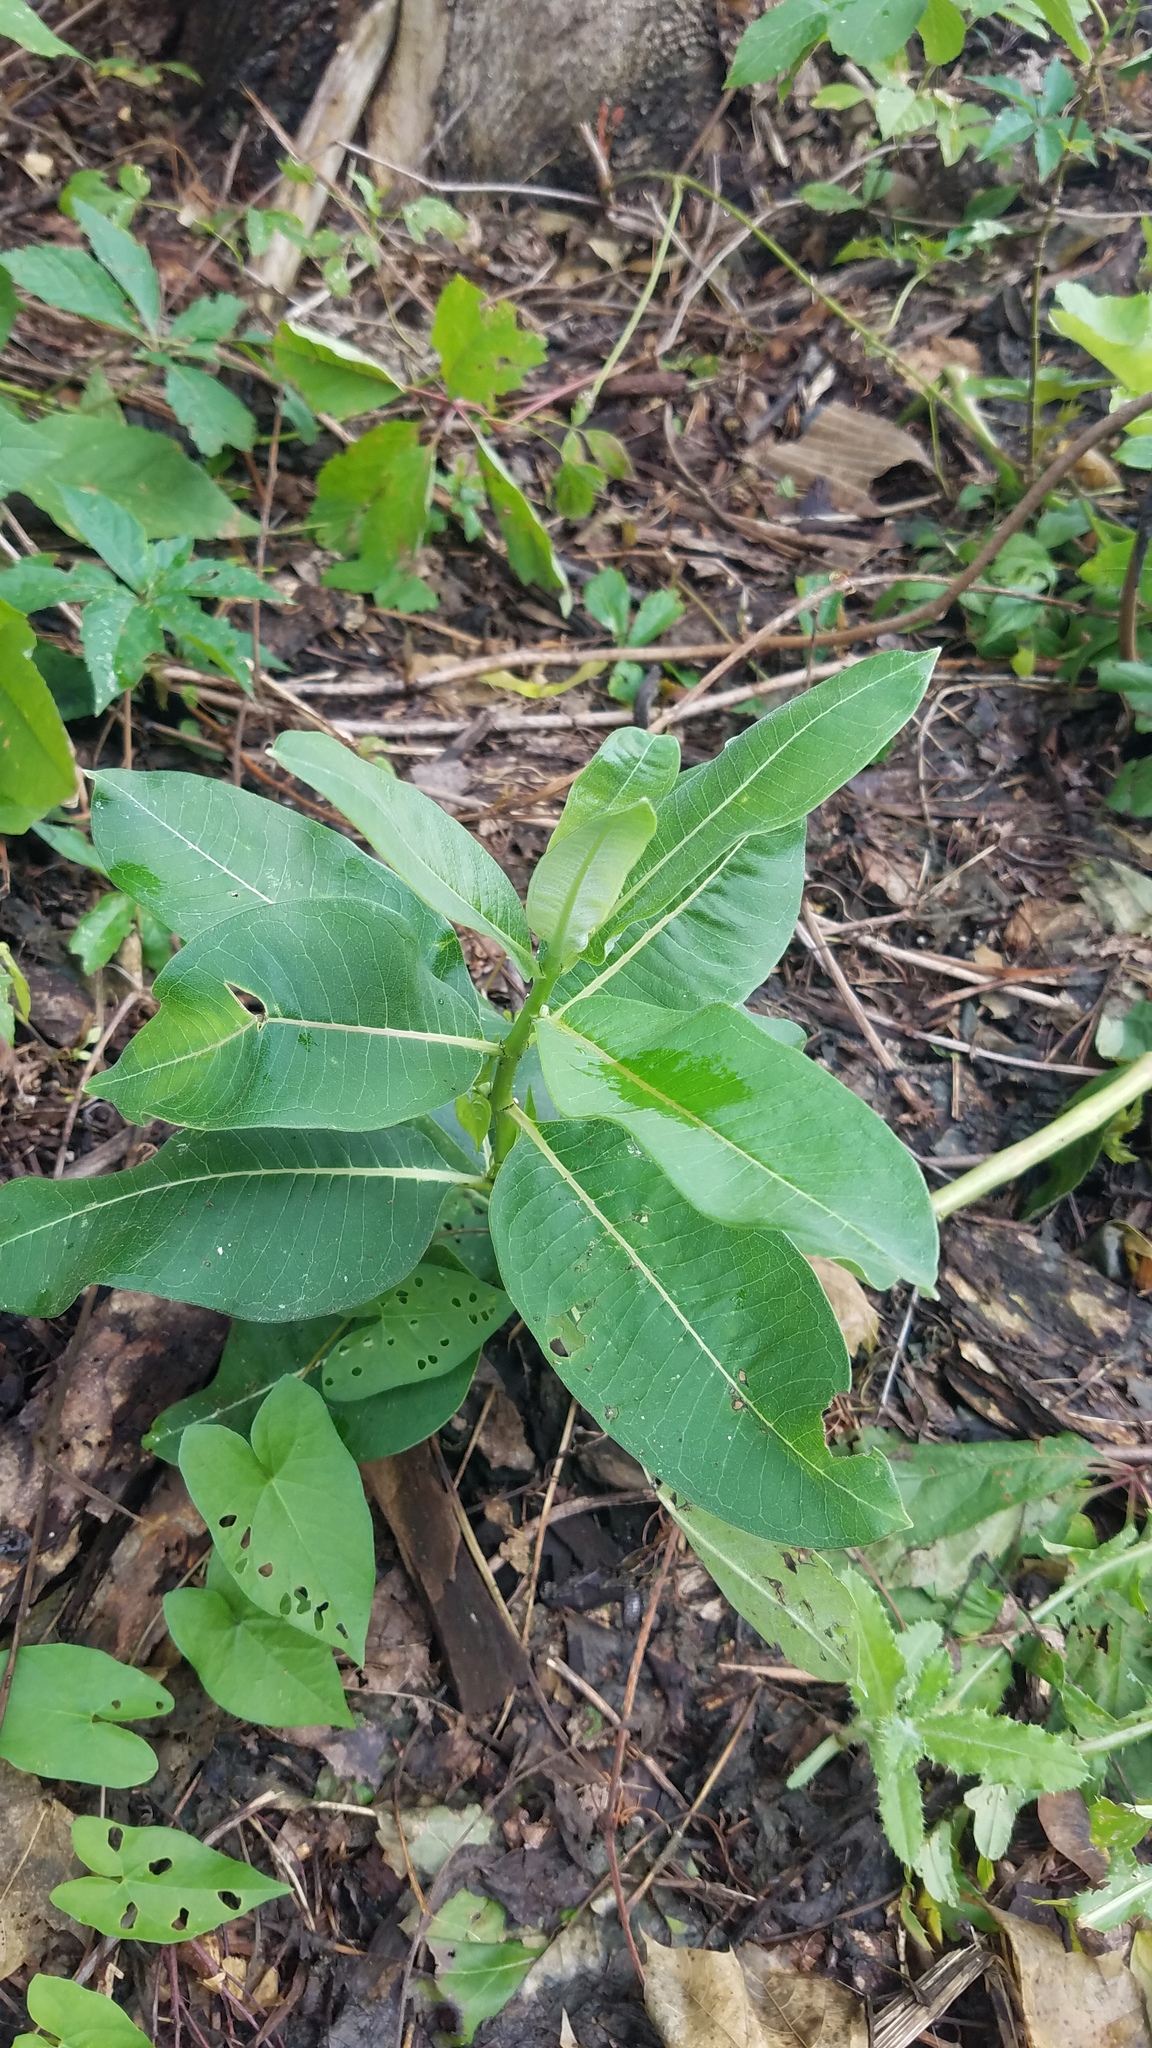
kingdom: Plantae
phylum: Tracheophyta
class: Magnoliopsida
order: Gentianales
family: Apocynaceae
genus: Asclepias
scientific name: Asclepias syriaca
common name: Common milkweed
